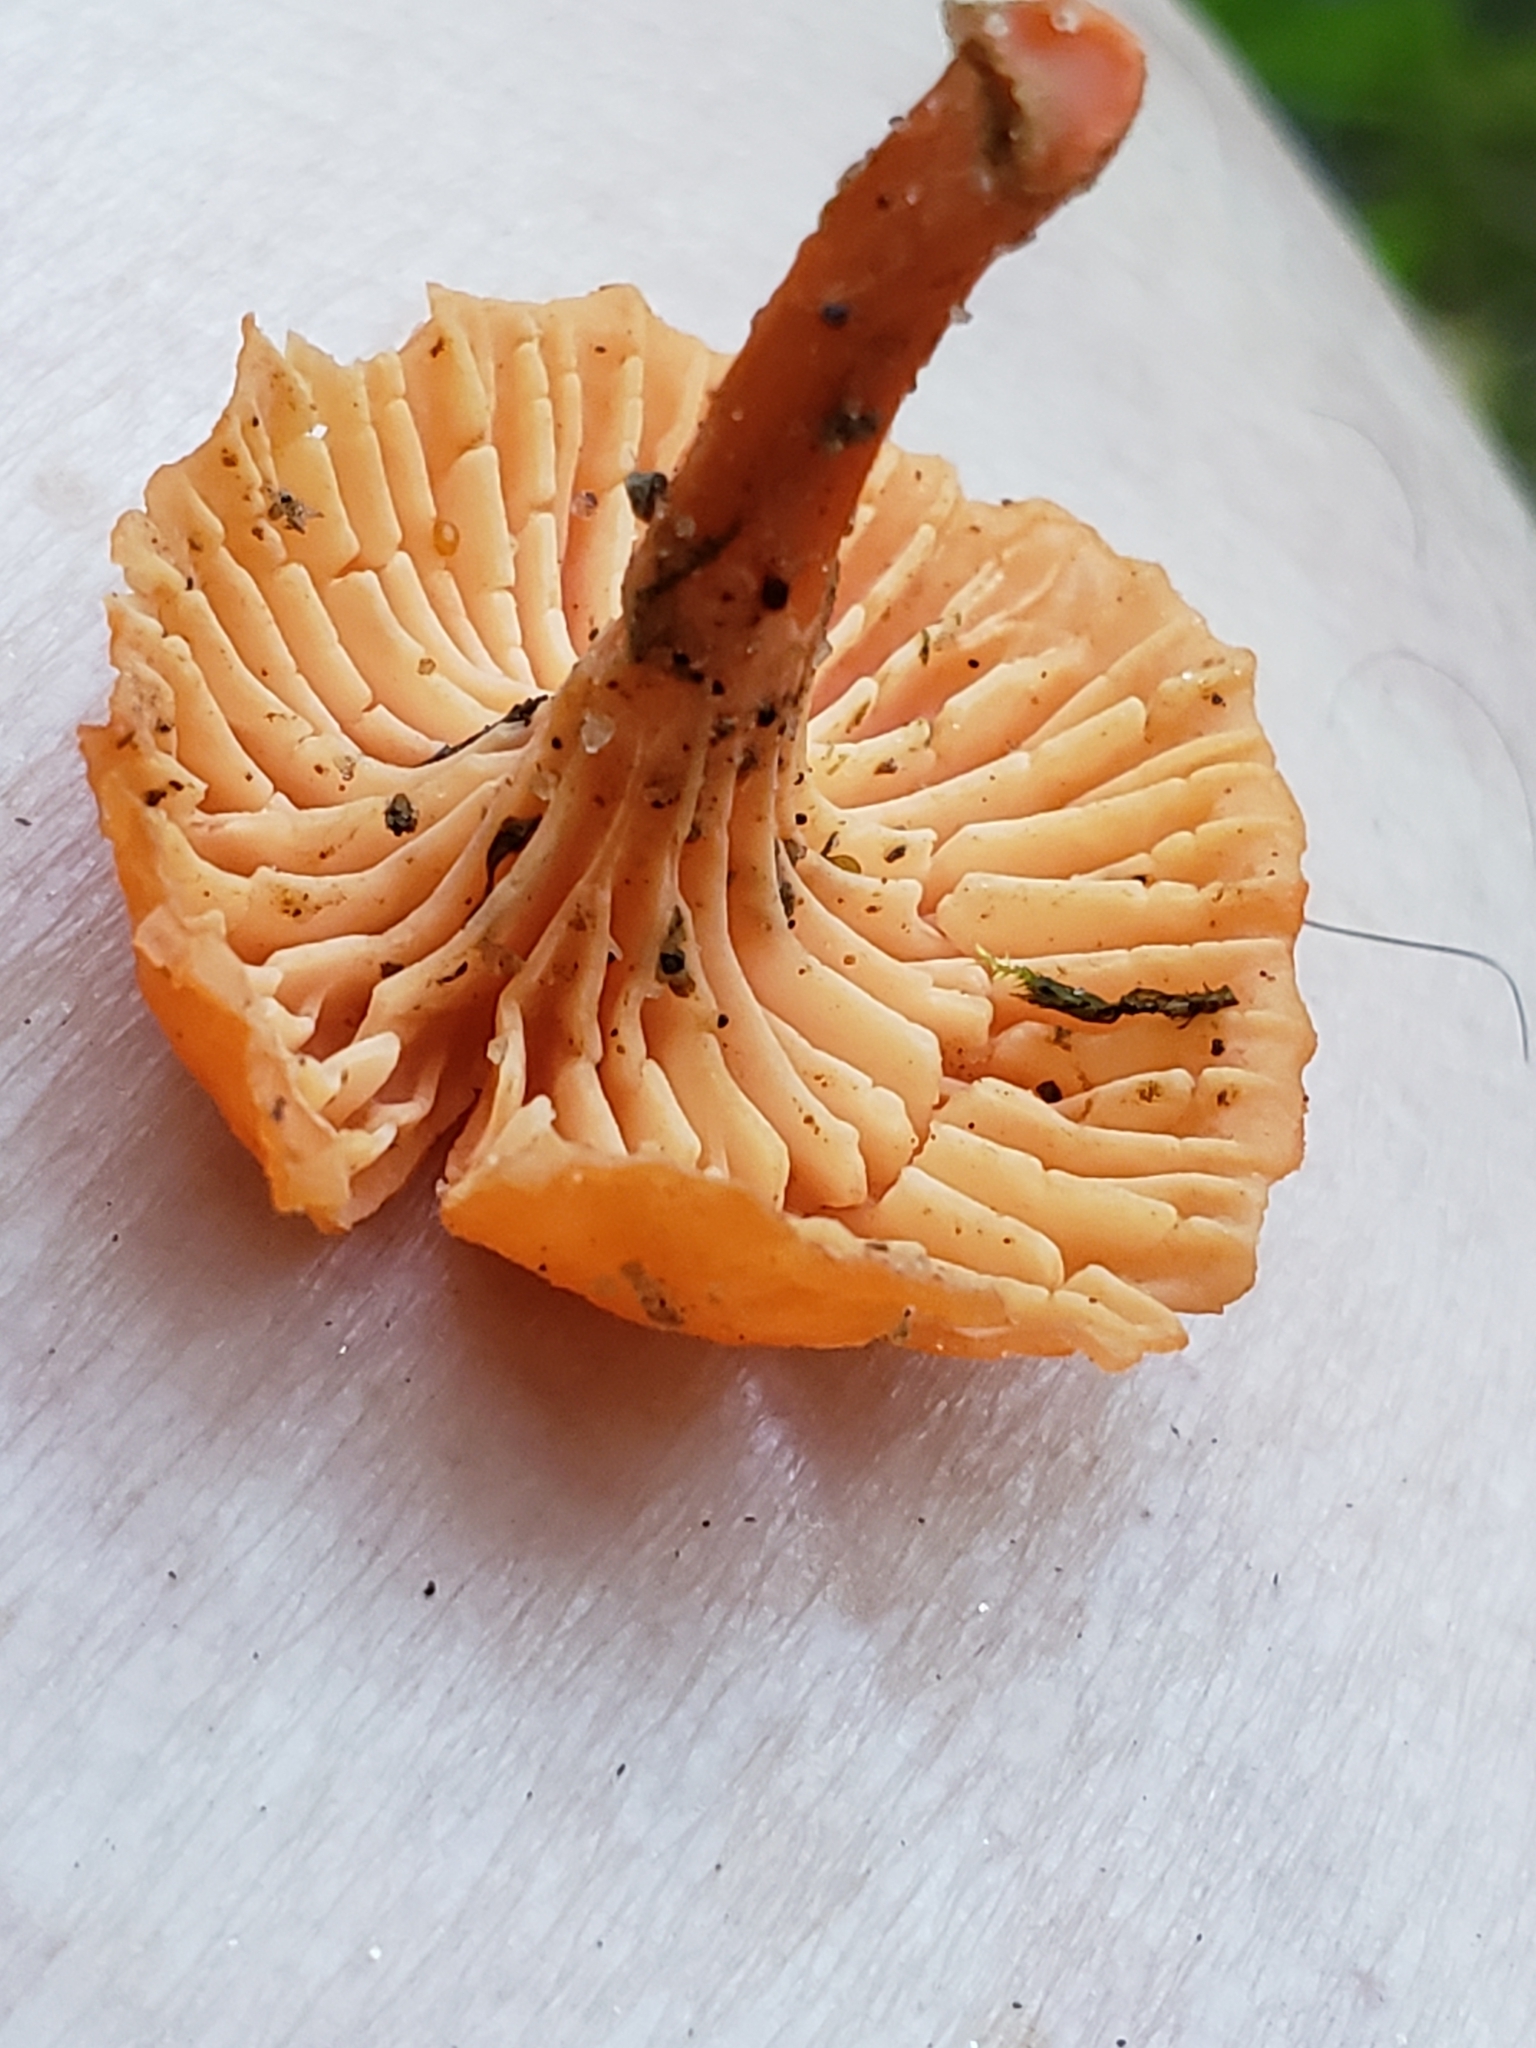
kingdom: Fungi
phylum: Basidiomycota
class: Agaricomycetes
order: Cantharellales
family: Hydnaceae
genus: Craterellus
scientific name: Craterellus ignicolor
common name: Flame chanterelle
